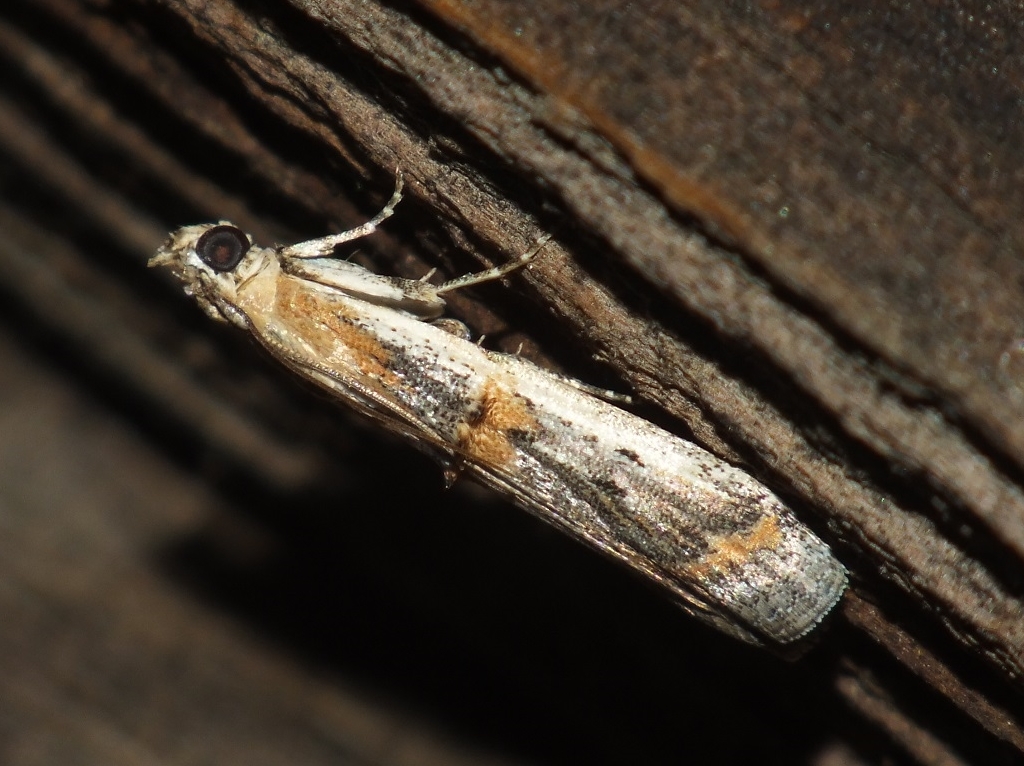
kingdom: Animalia
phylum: Arthropoda
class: Insecta
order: Lepidoptera
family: Pyralidae
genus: Psorosa
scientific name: Psorosa dahliella
